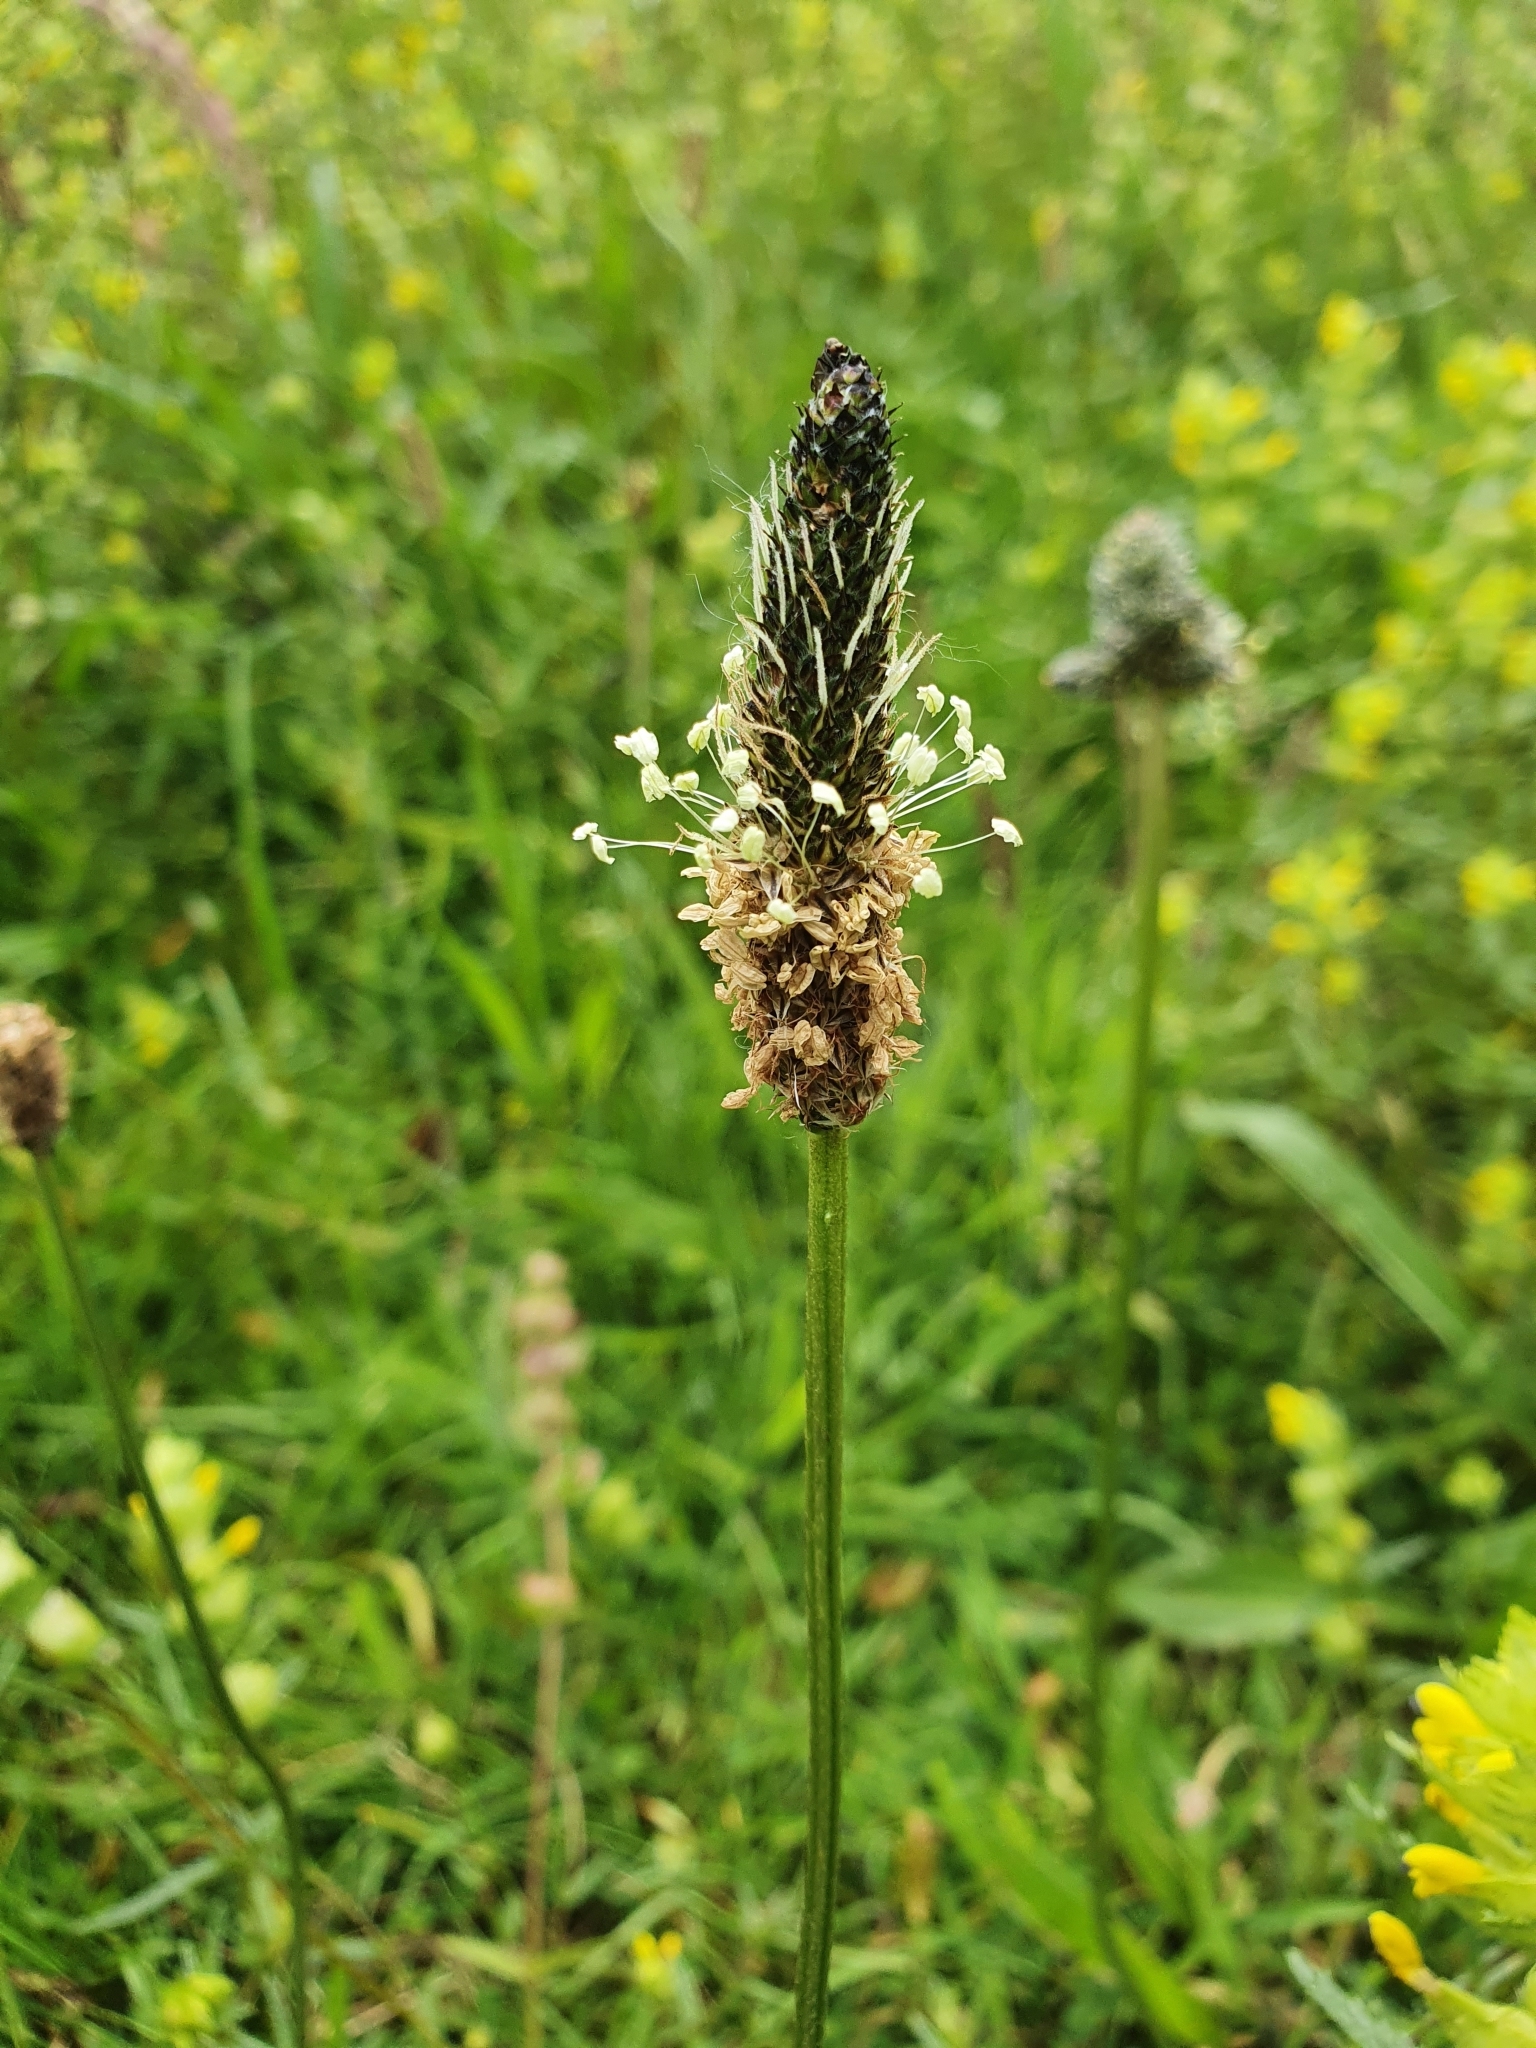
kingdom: Plantae
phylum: Tracheophyta
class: Magnoliopsida
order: Lamiales
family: Plantaginaceae
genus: Plantago
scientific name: Plantago lanceolata
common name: Ribwort plantain
